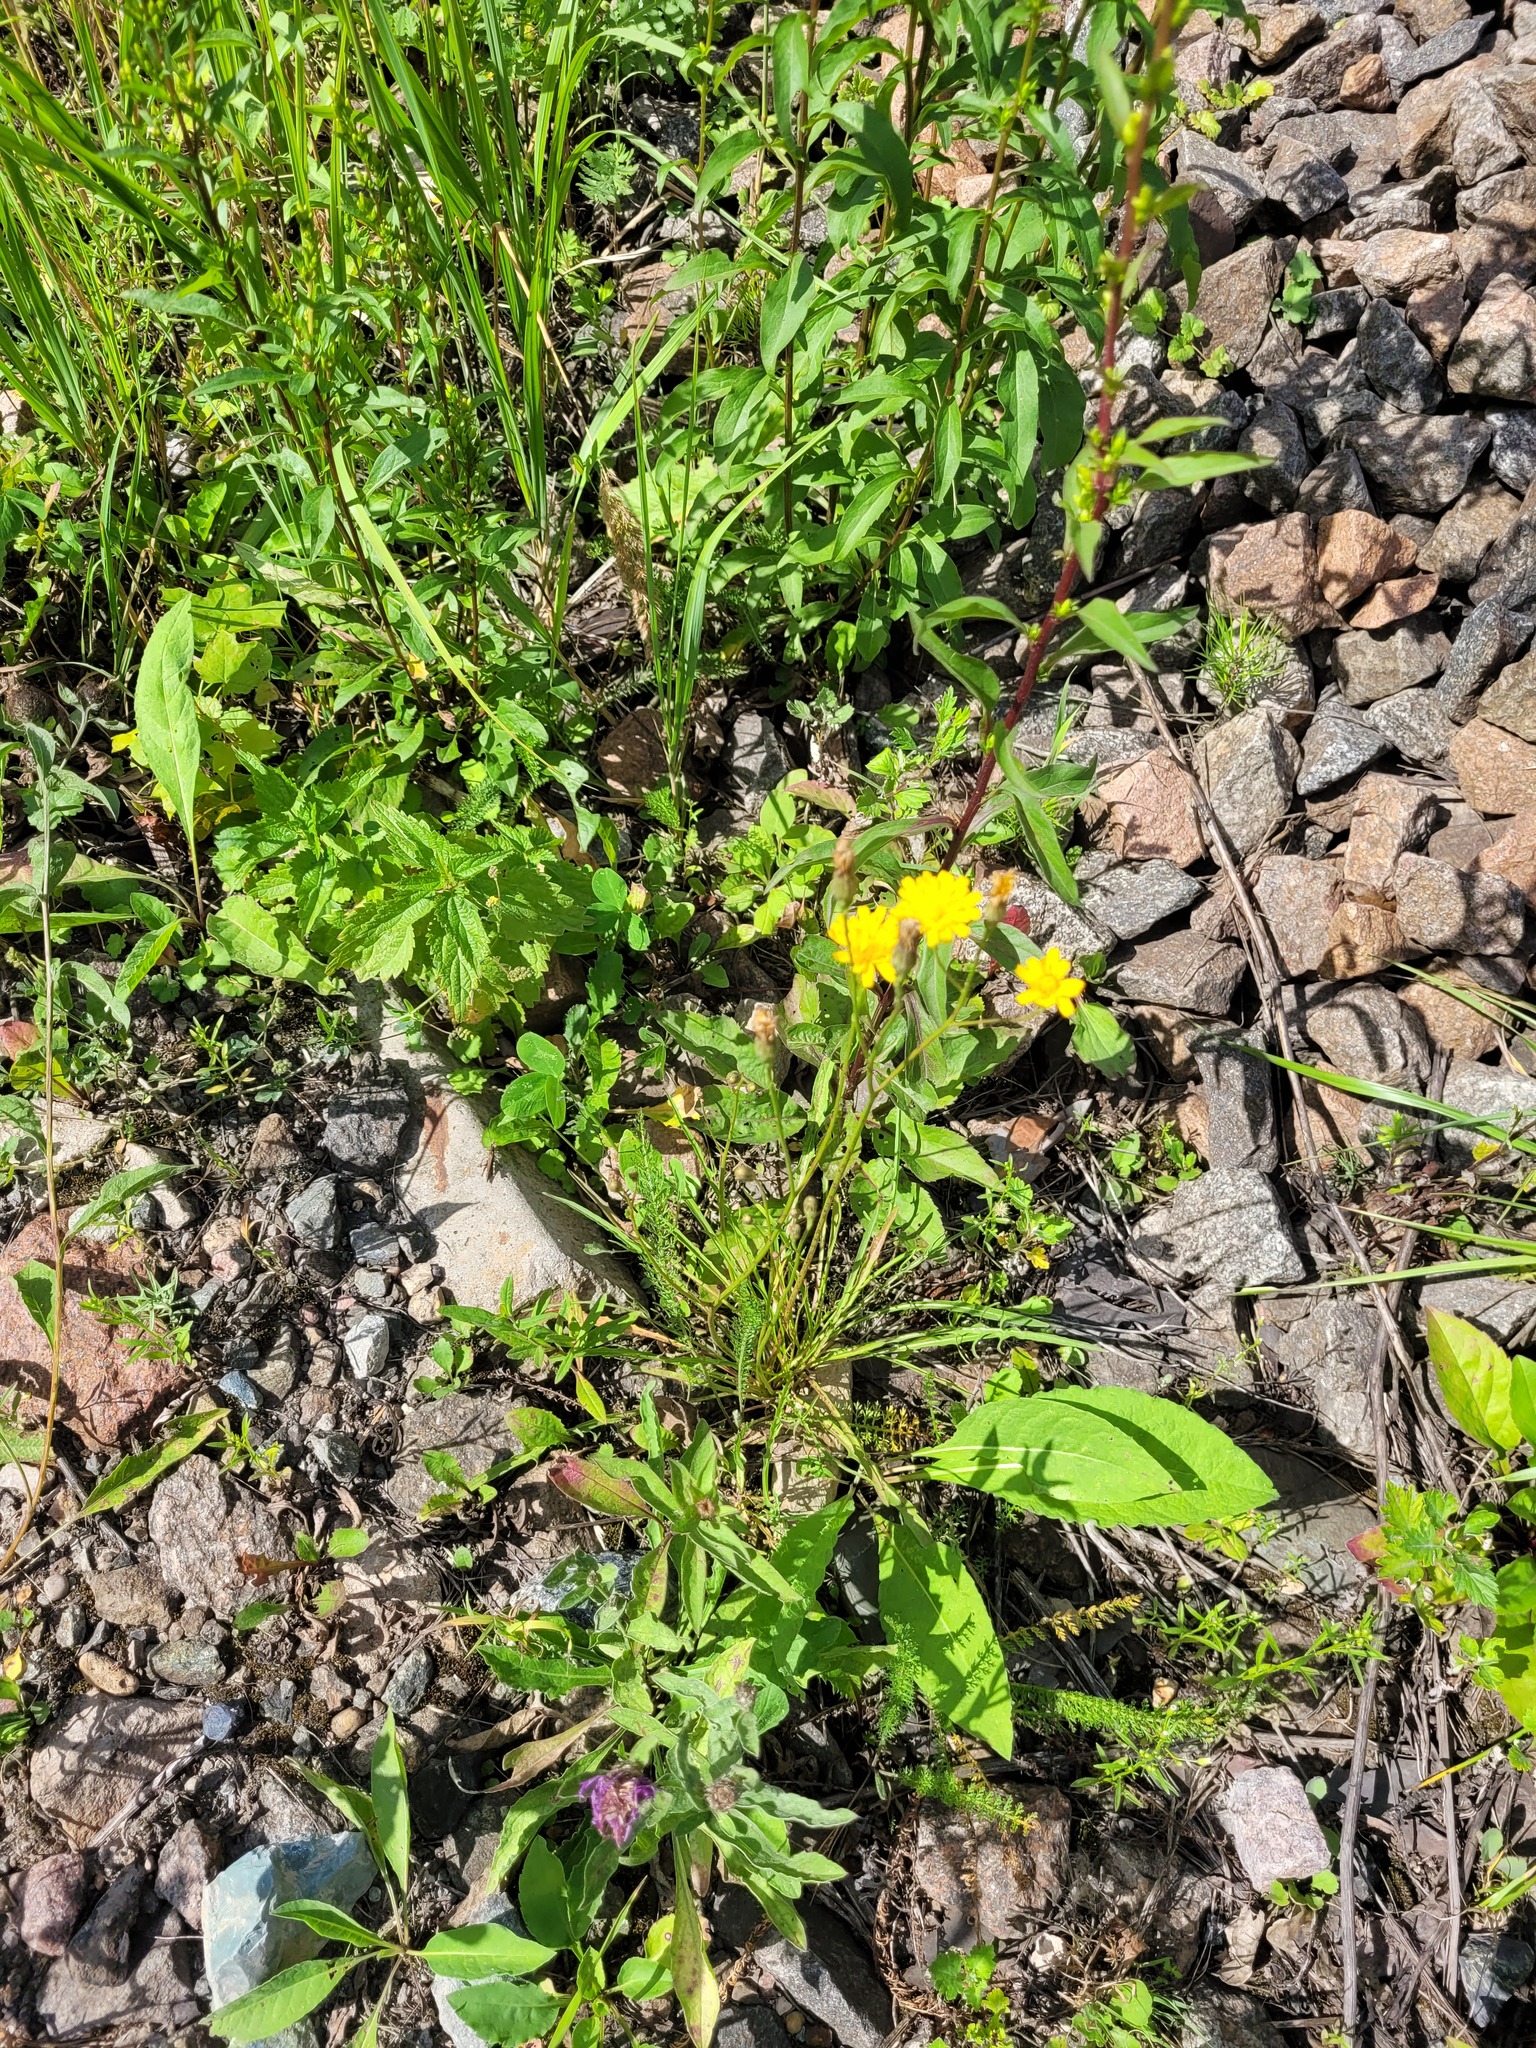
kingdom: Plantae
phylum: Tracheophyta
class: Magnoliopsida
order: Asterales
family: Asteraceae
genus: Scorzoneroides
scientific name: Scorzoneroides autumnalis
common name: Autumn hawkbit
